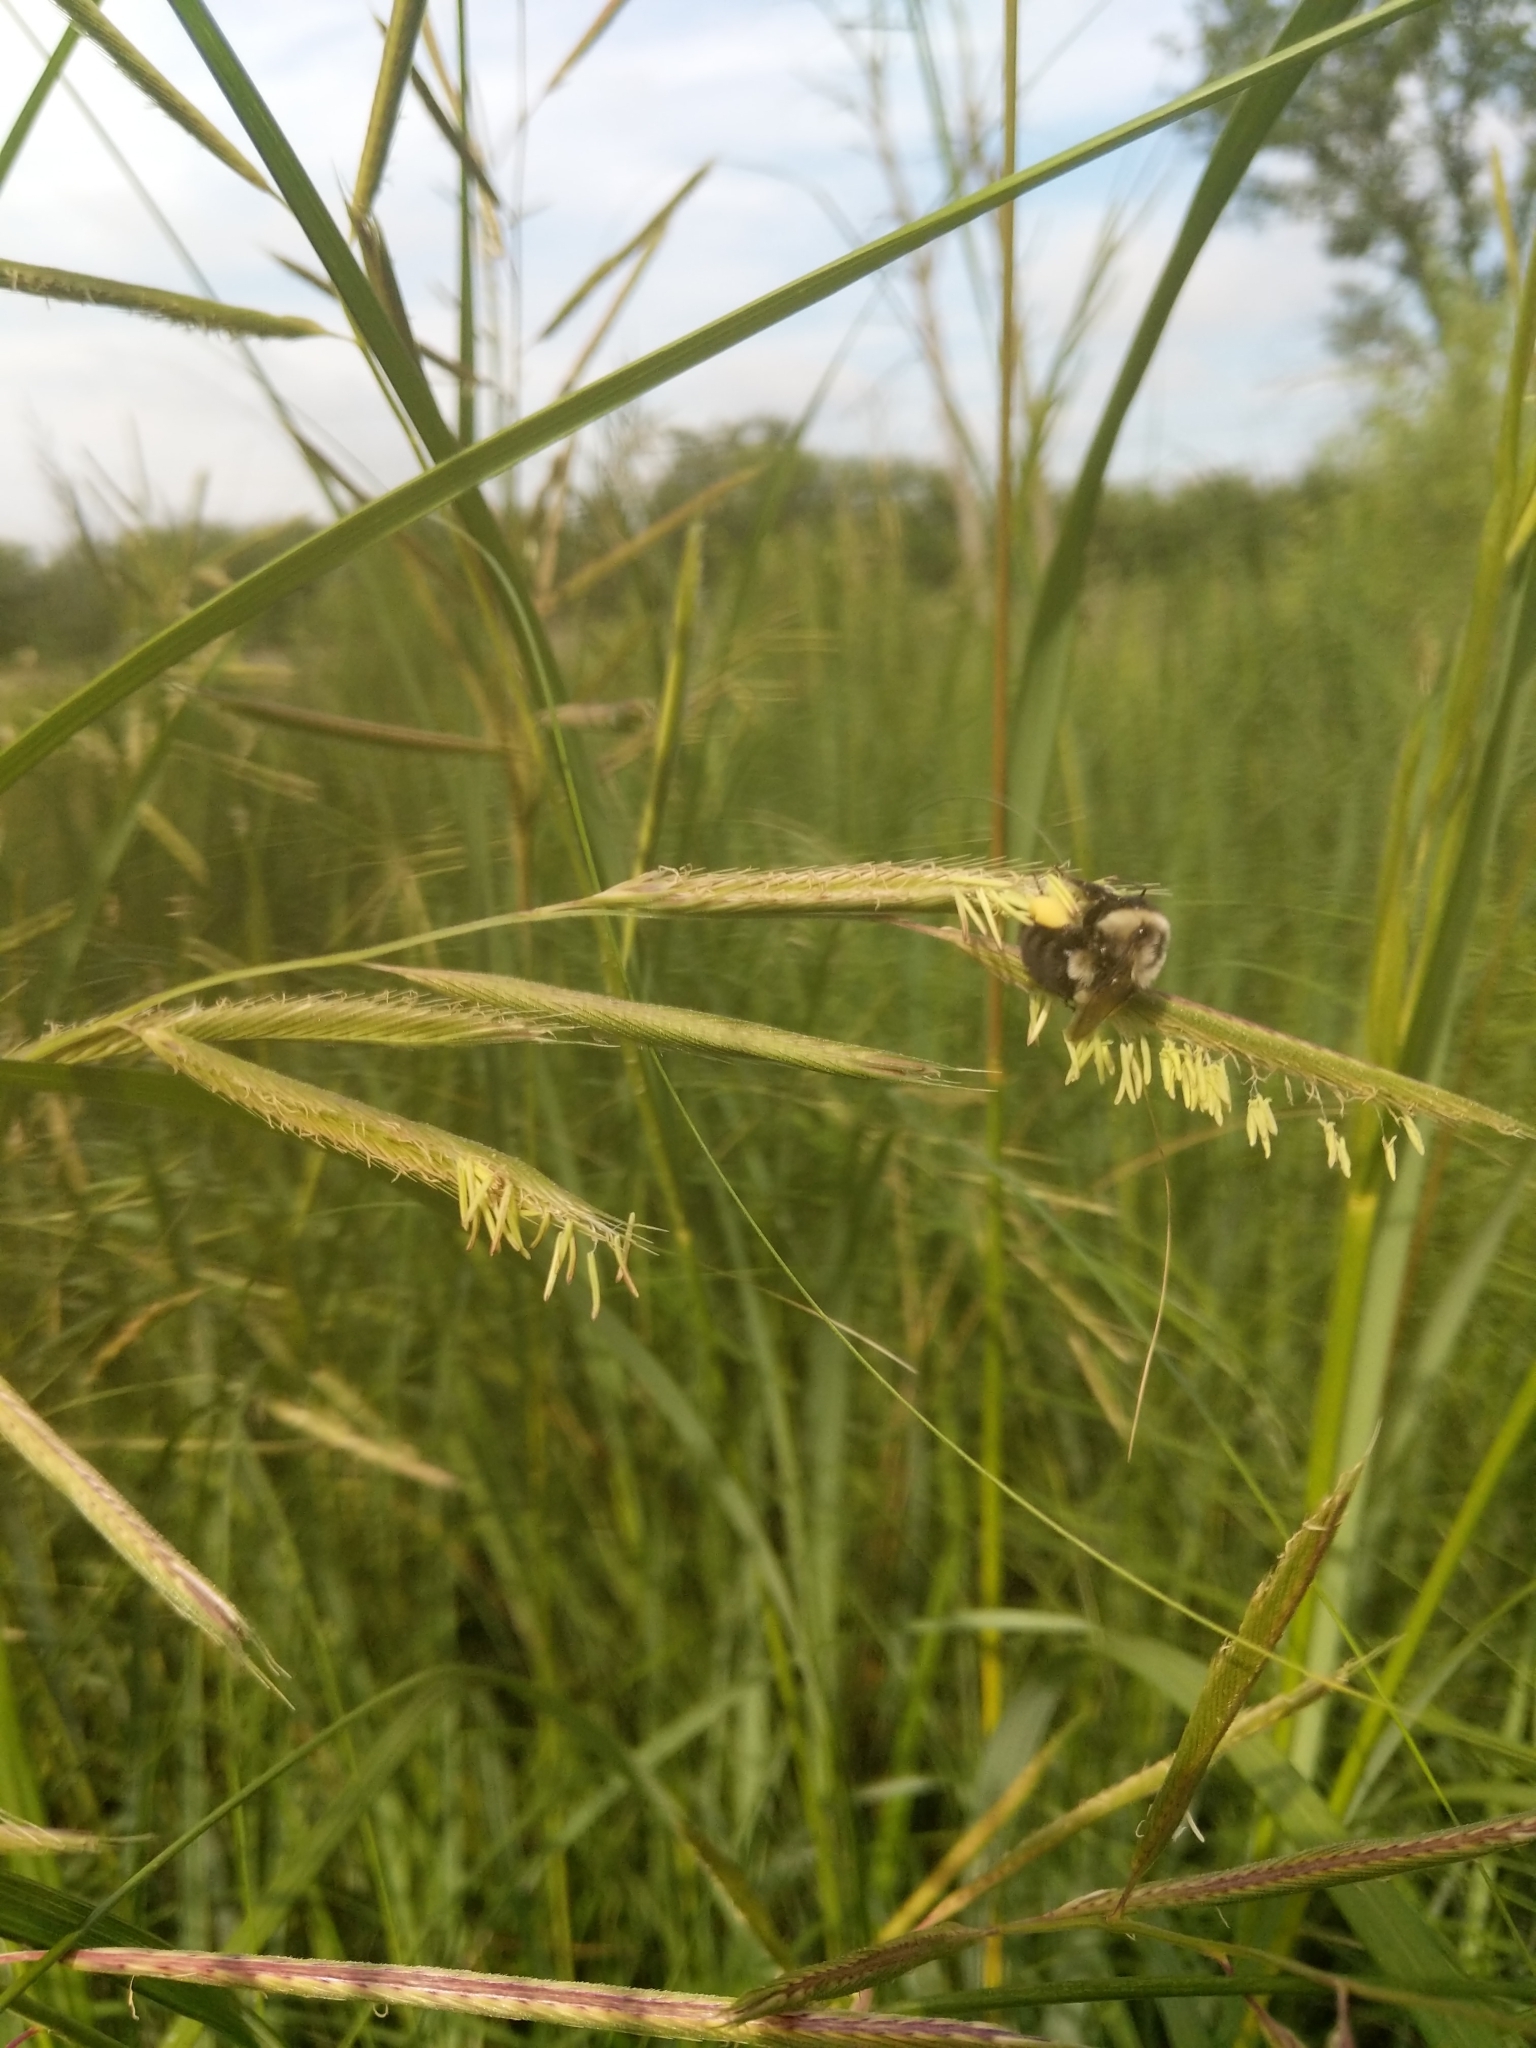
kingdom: Plantae
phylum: Tracheophyta
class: Liliopsida
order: Poales
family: Poaceae
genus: Sporobolus
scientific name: Sporobolus michauxianus
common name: Freshwater cordgrass
